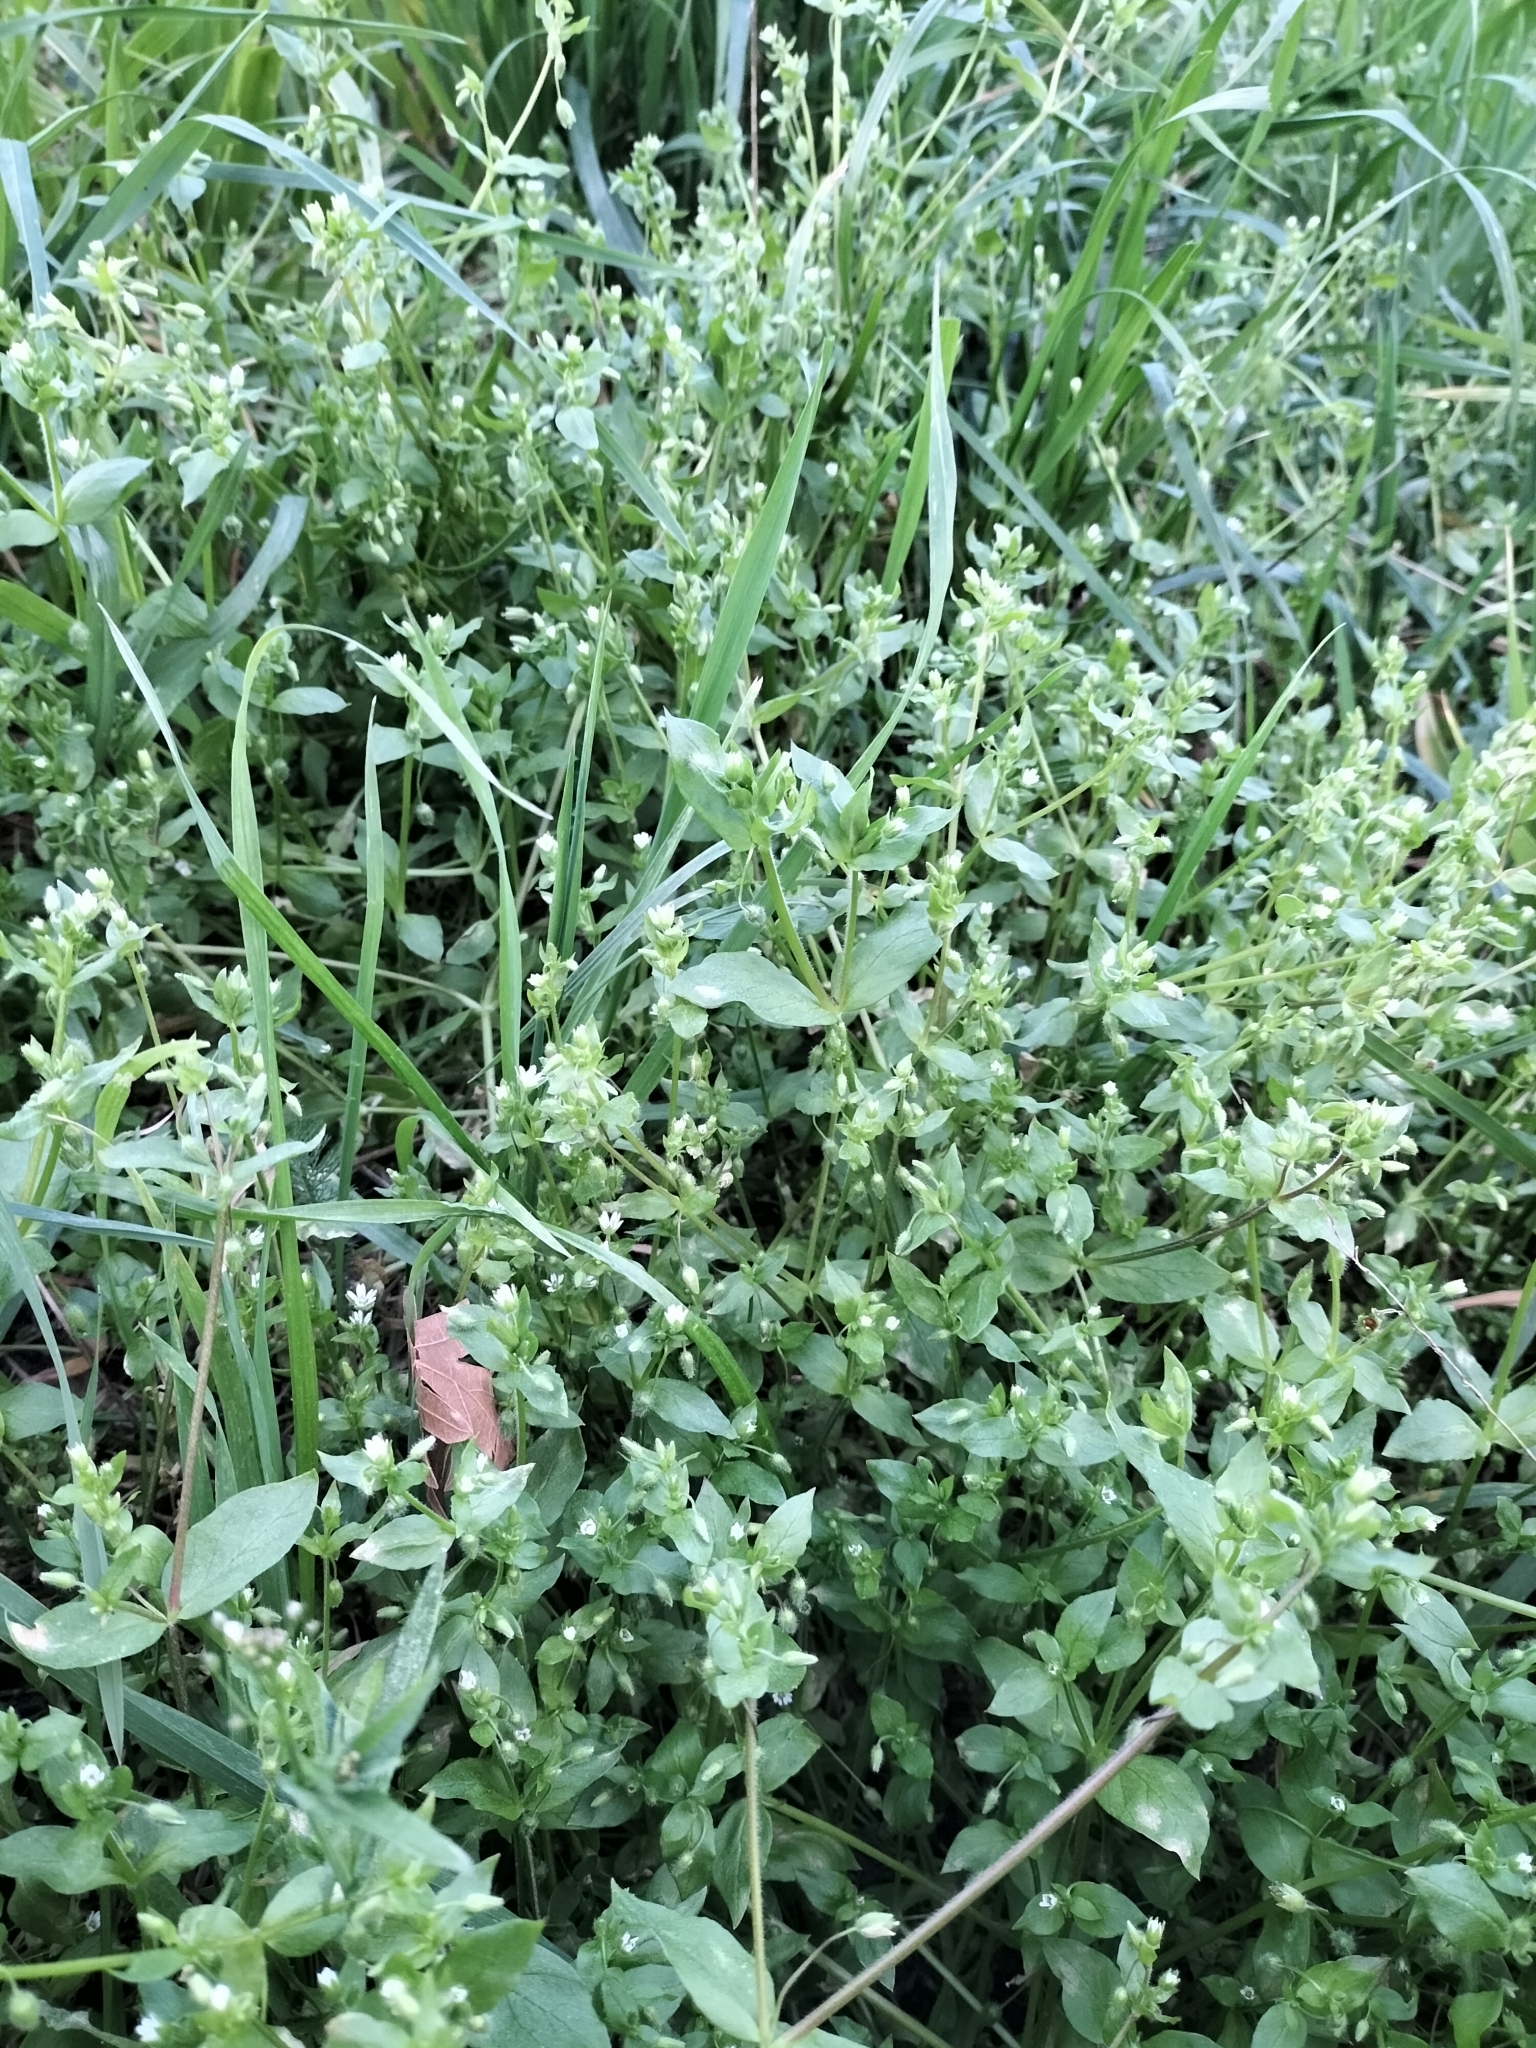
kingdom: Plantae
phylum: Tracheophyta
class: Magnoliopsida
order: Caryophyllales
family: Caryophyllaceae
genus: Stellaria
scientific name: Stellaria media
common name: Common chickweed
